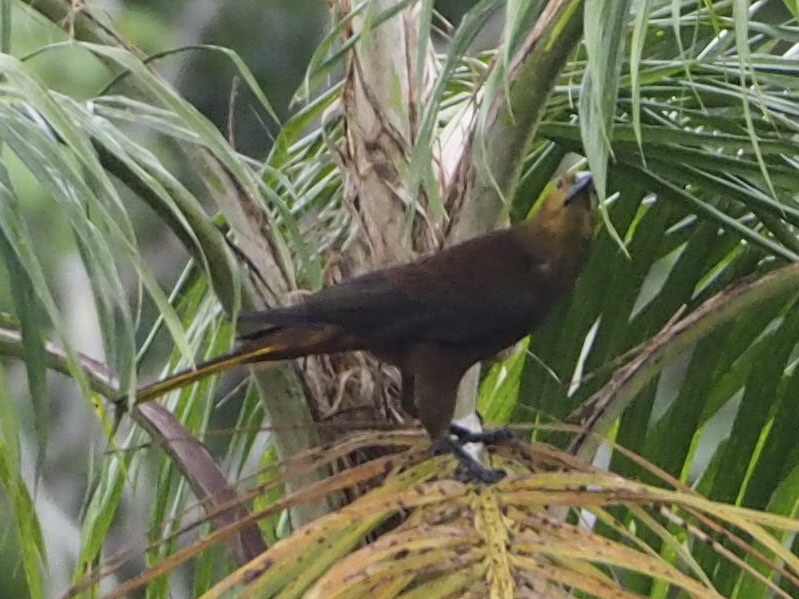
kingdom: Animalia
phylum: Chordata
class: Aves
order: Passeriformes
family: Icteridae
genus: Psarocolius
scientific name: Psarocolius angustifrons
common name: Russet-backed oropendola
